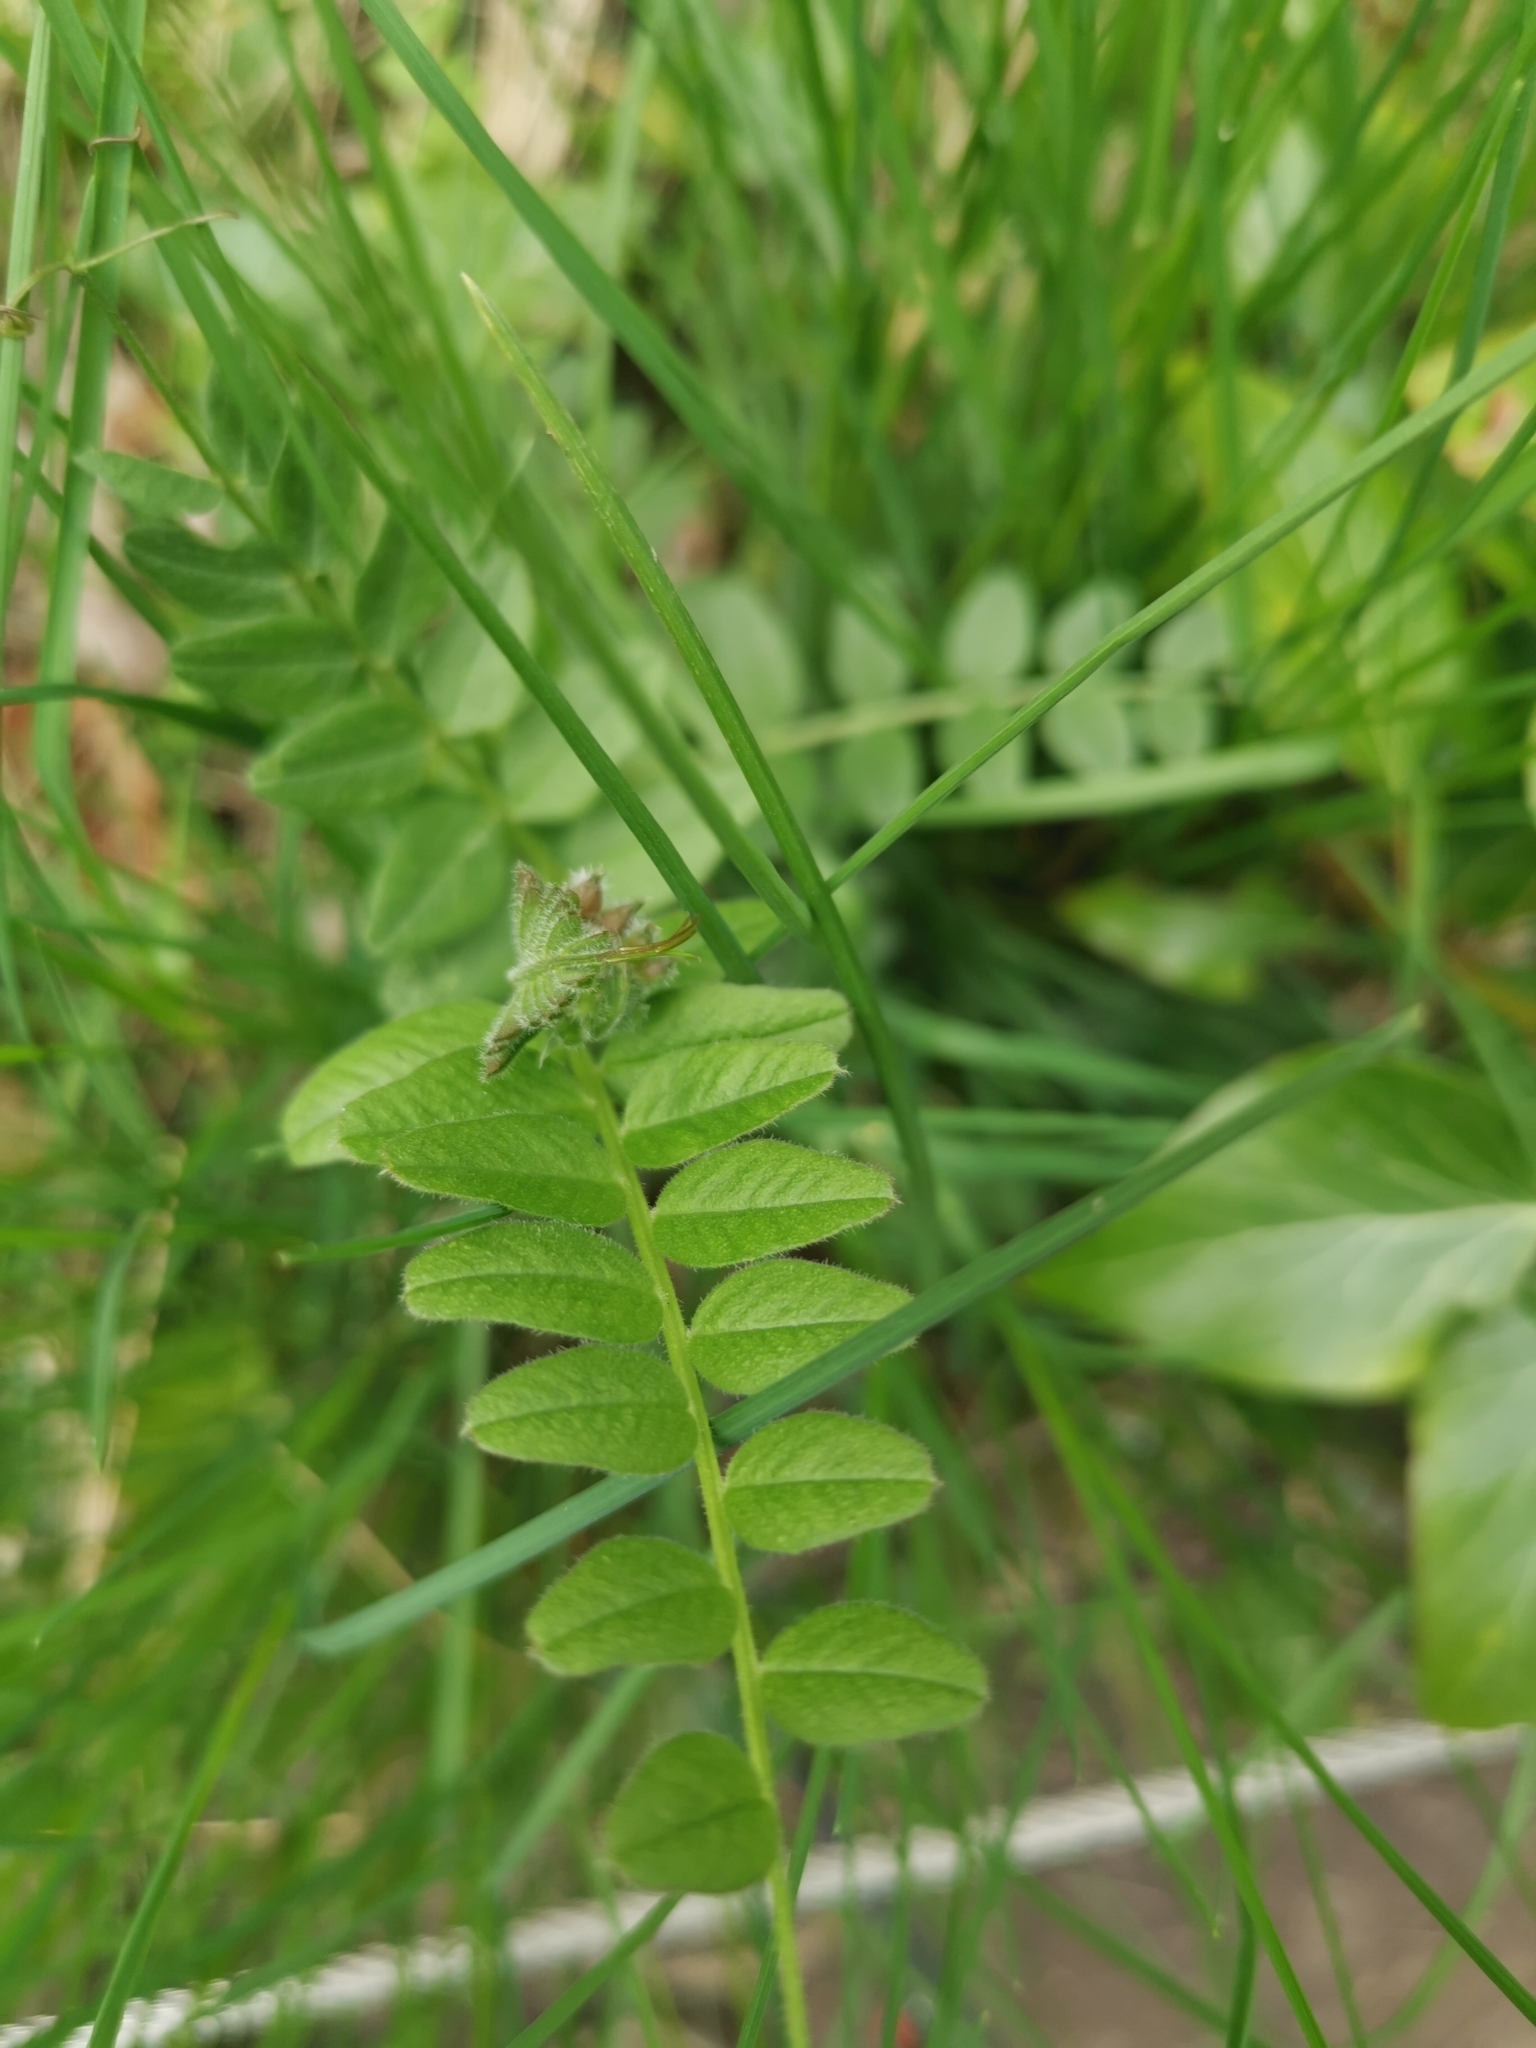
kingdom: Plantae
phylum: Tracheophyta
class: Magnoliopsida
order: Fabales
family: Fabaceae
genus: Vicia
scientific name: Vicia sepium
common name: Bush vetch
